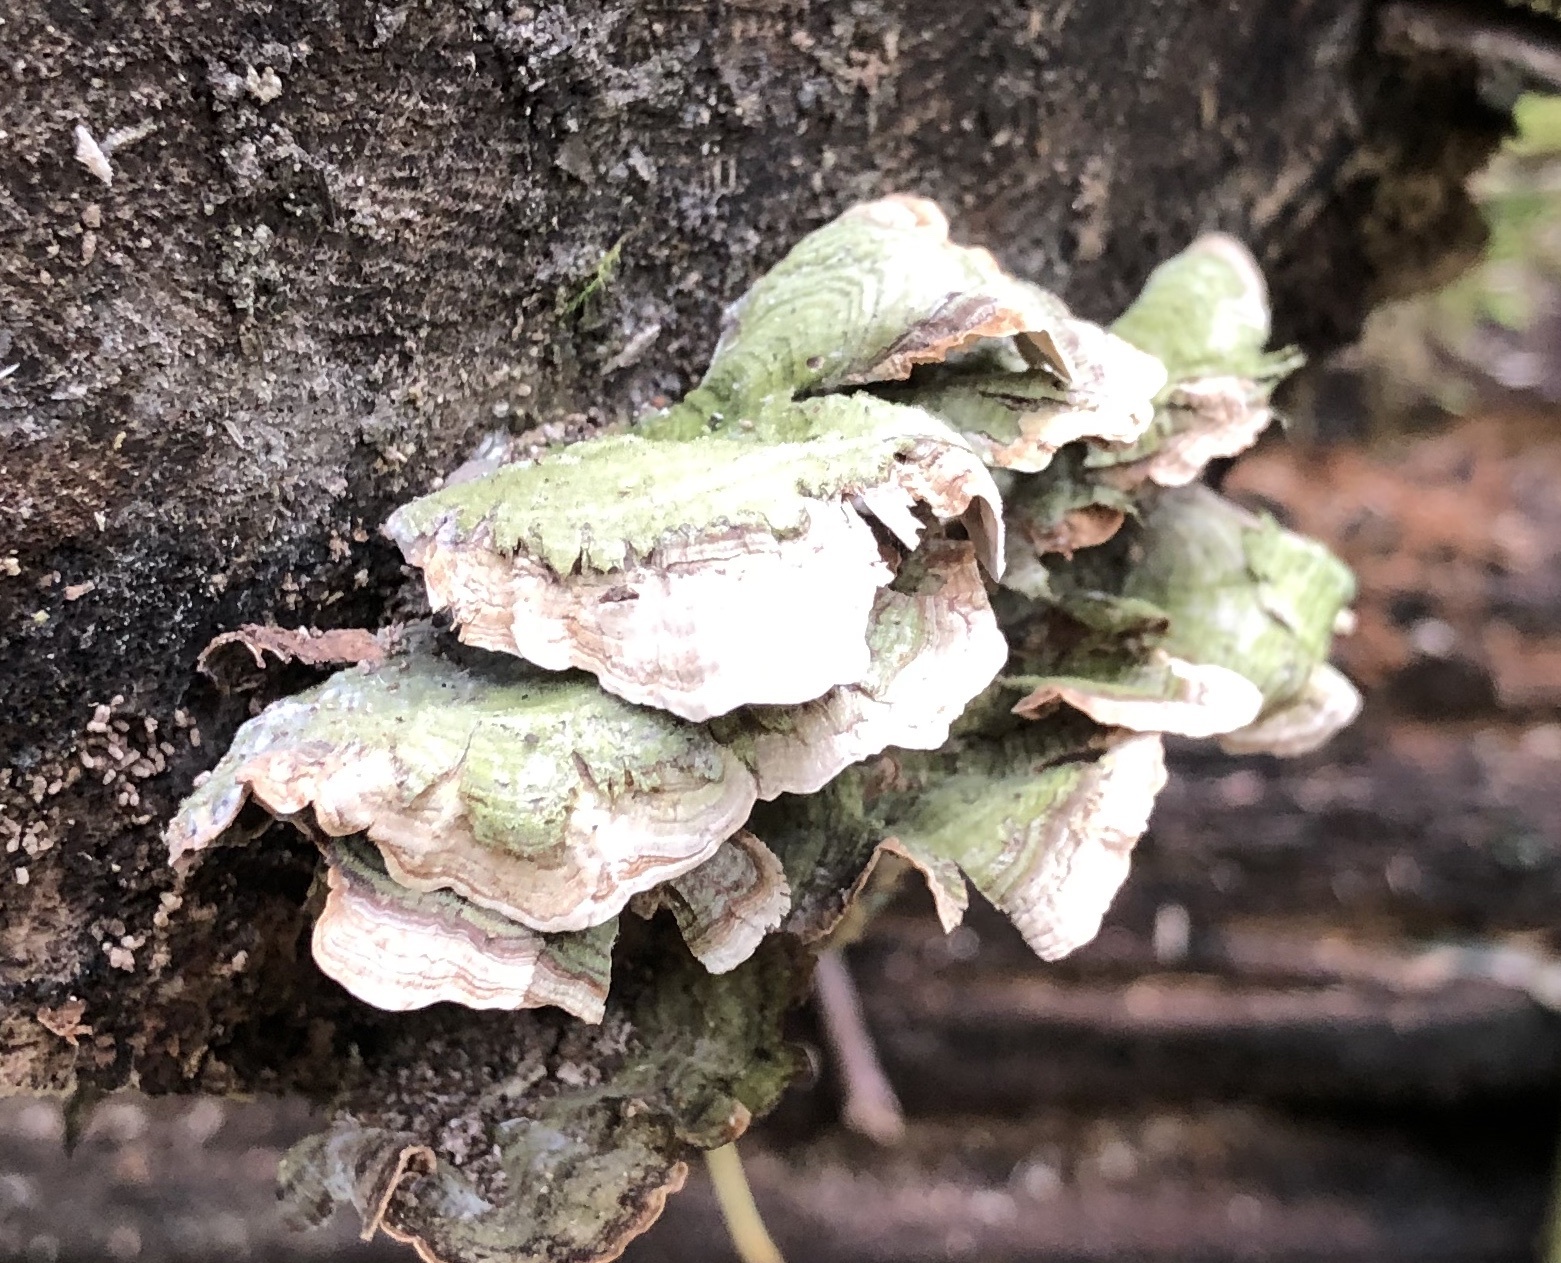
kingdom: Fungi
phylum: Basidiomycota
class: Agaricomycetes
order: Russulales
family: Stereaceae
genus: Stereum
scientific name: Stereum subtomentosum
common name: Yellowing curtain crust
